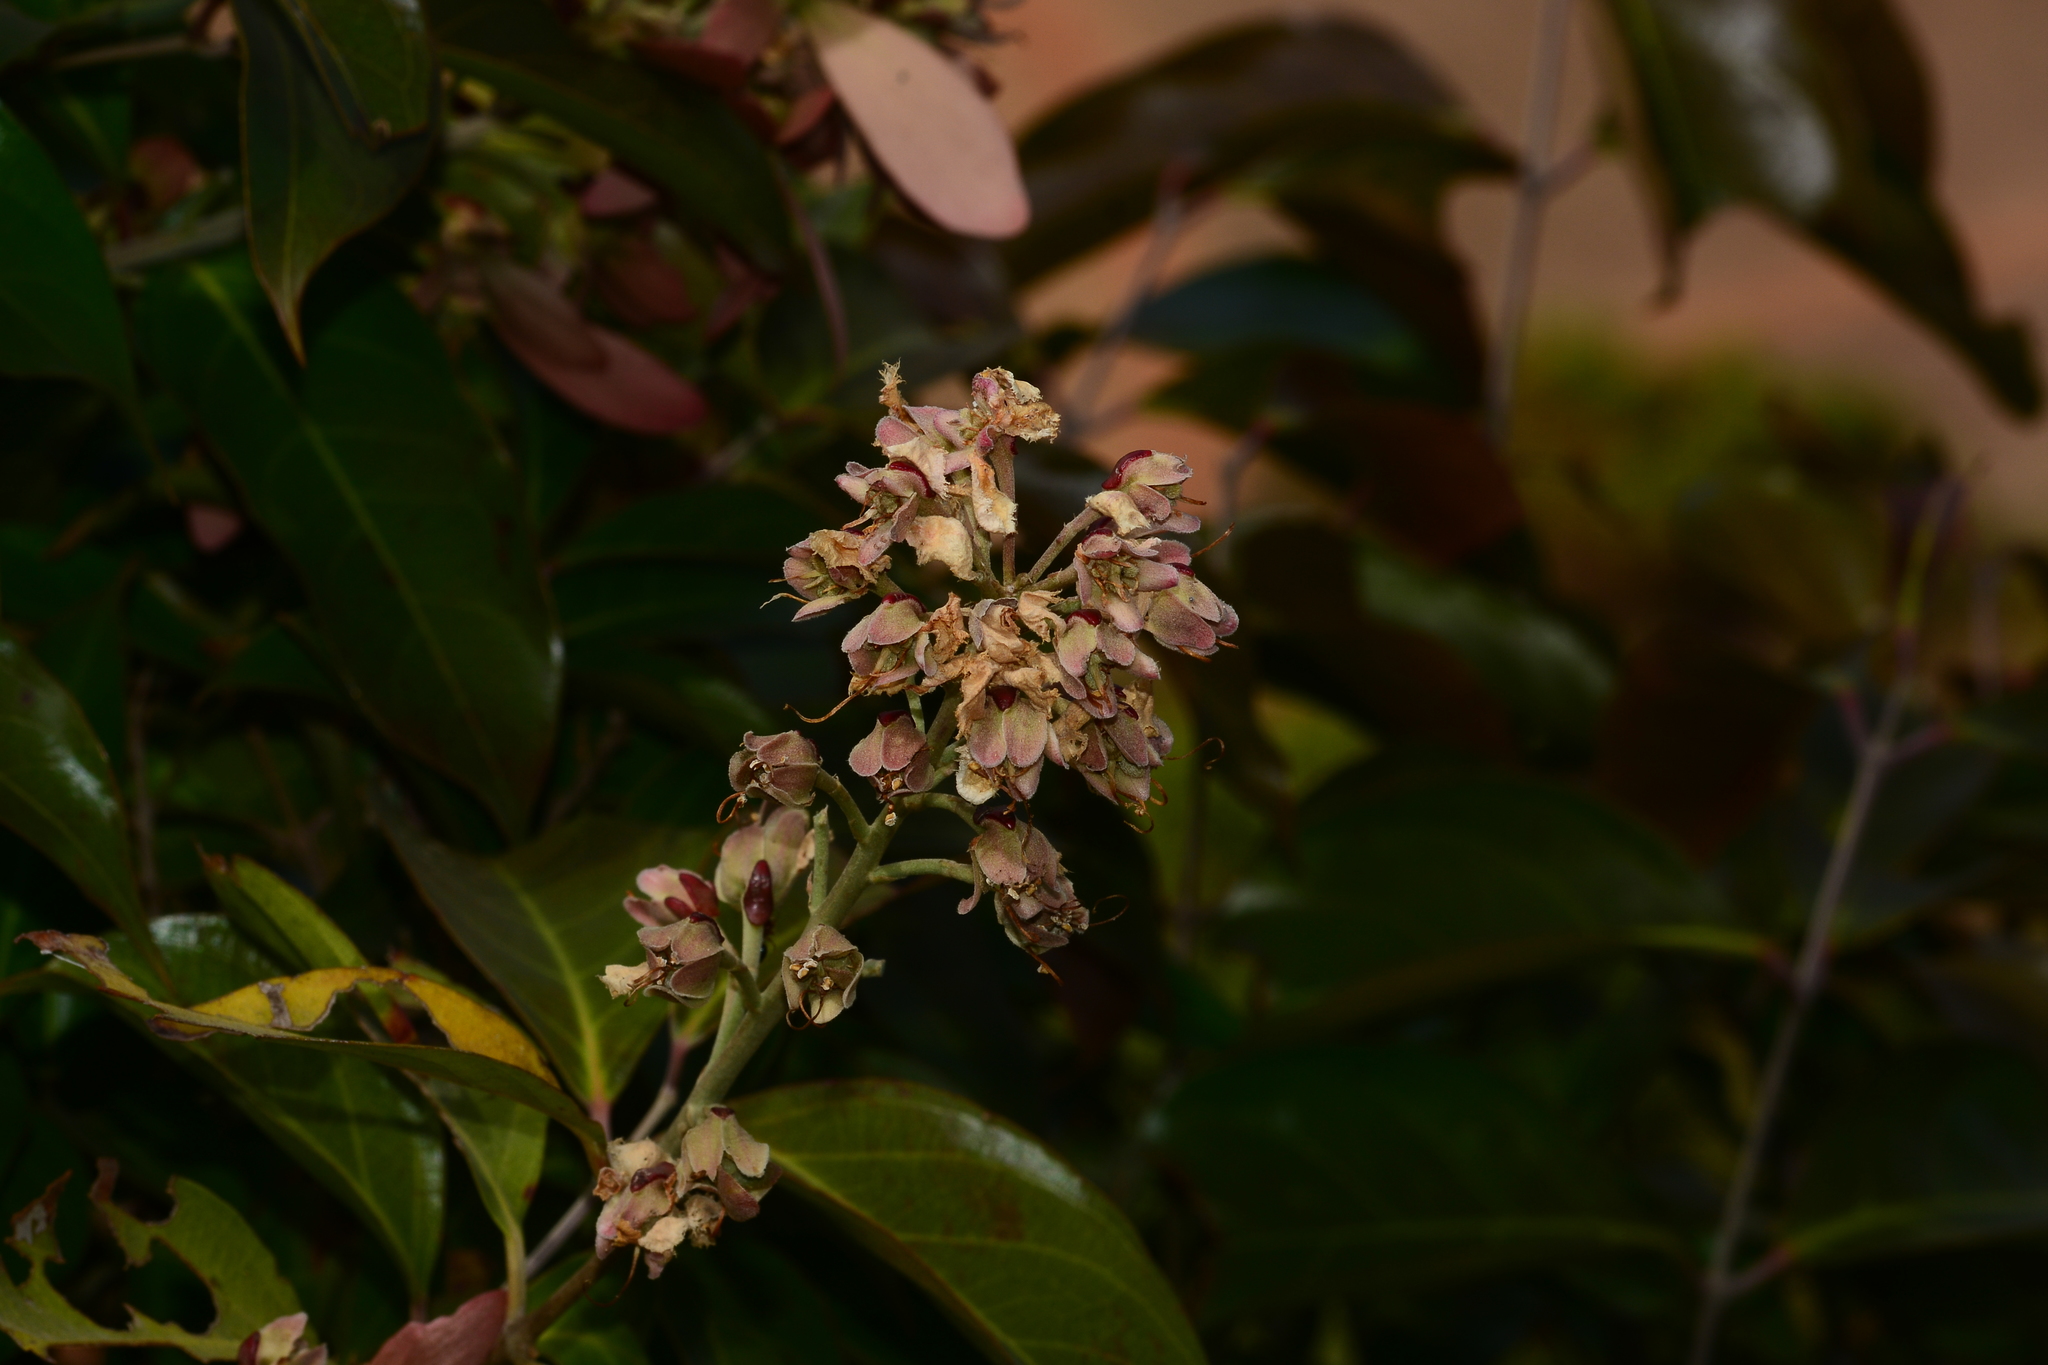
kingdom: Plantae
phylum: Tracheophyta
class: Magnoliopsida
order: Malpighiales
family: Malpighiaceae
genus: Hiptage
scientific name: Hiptage benghalensis
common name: Hiptage
